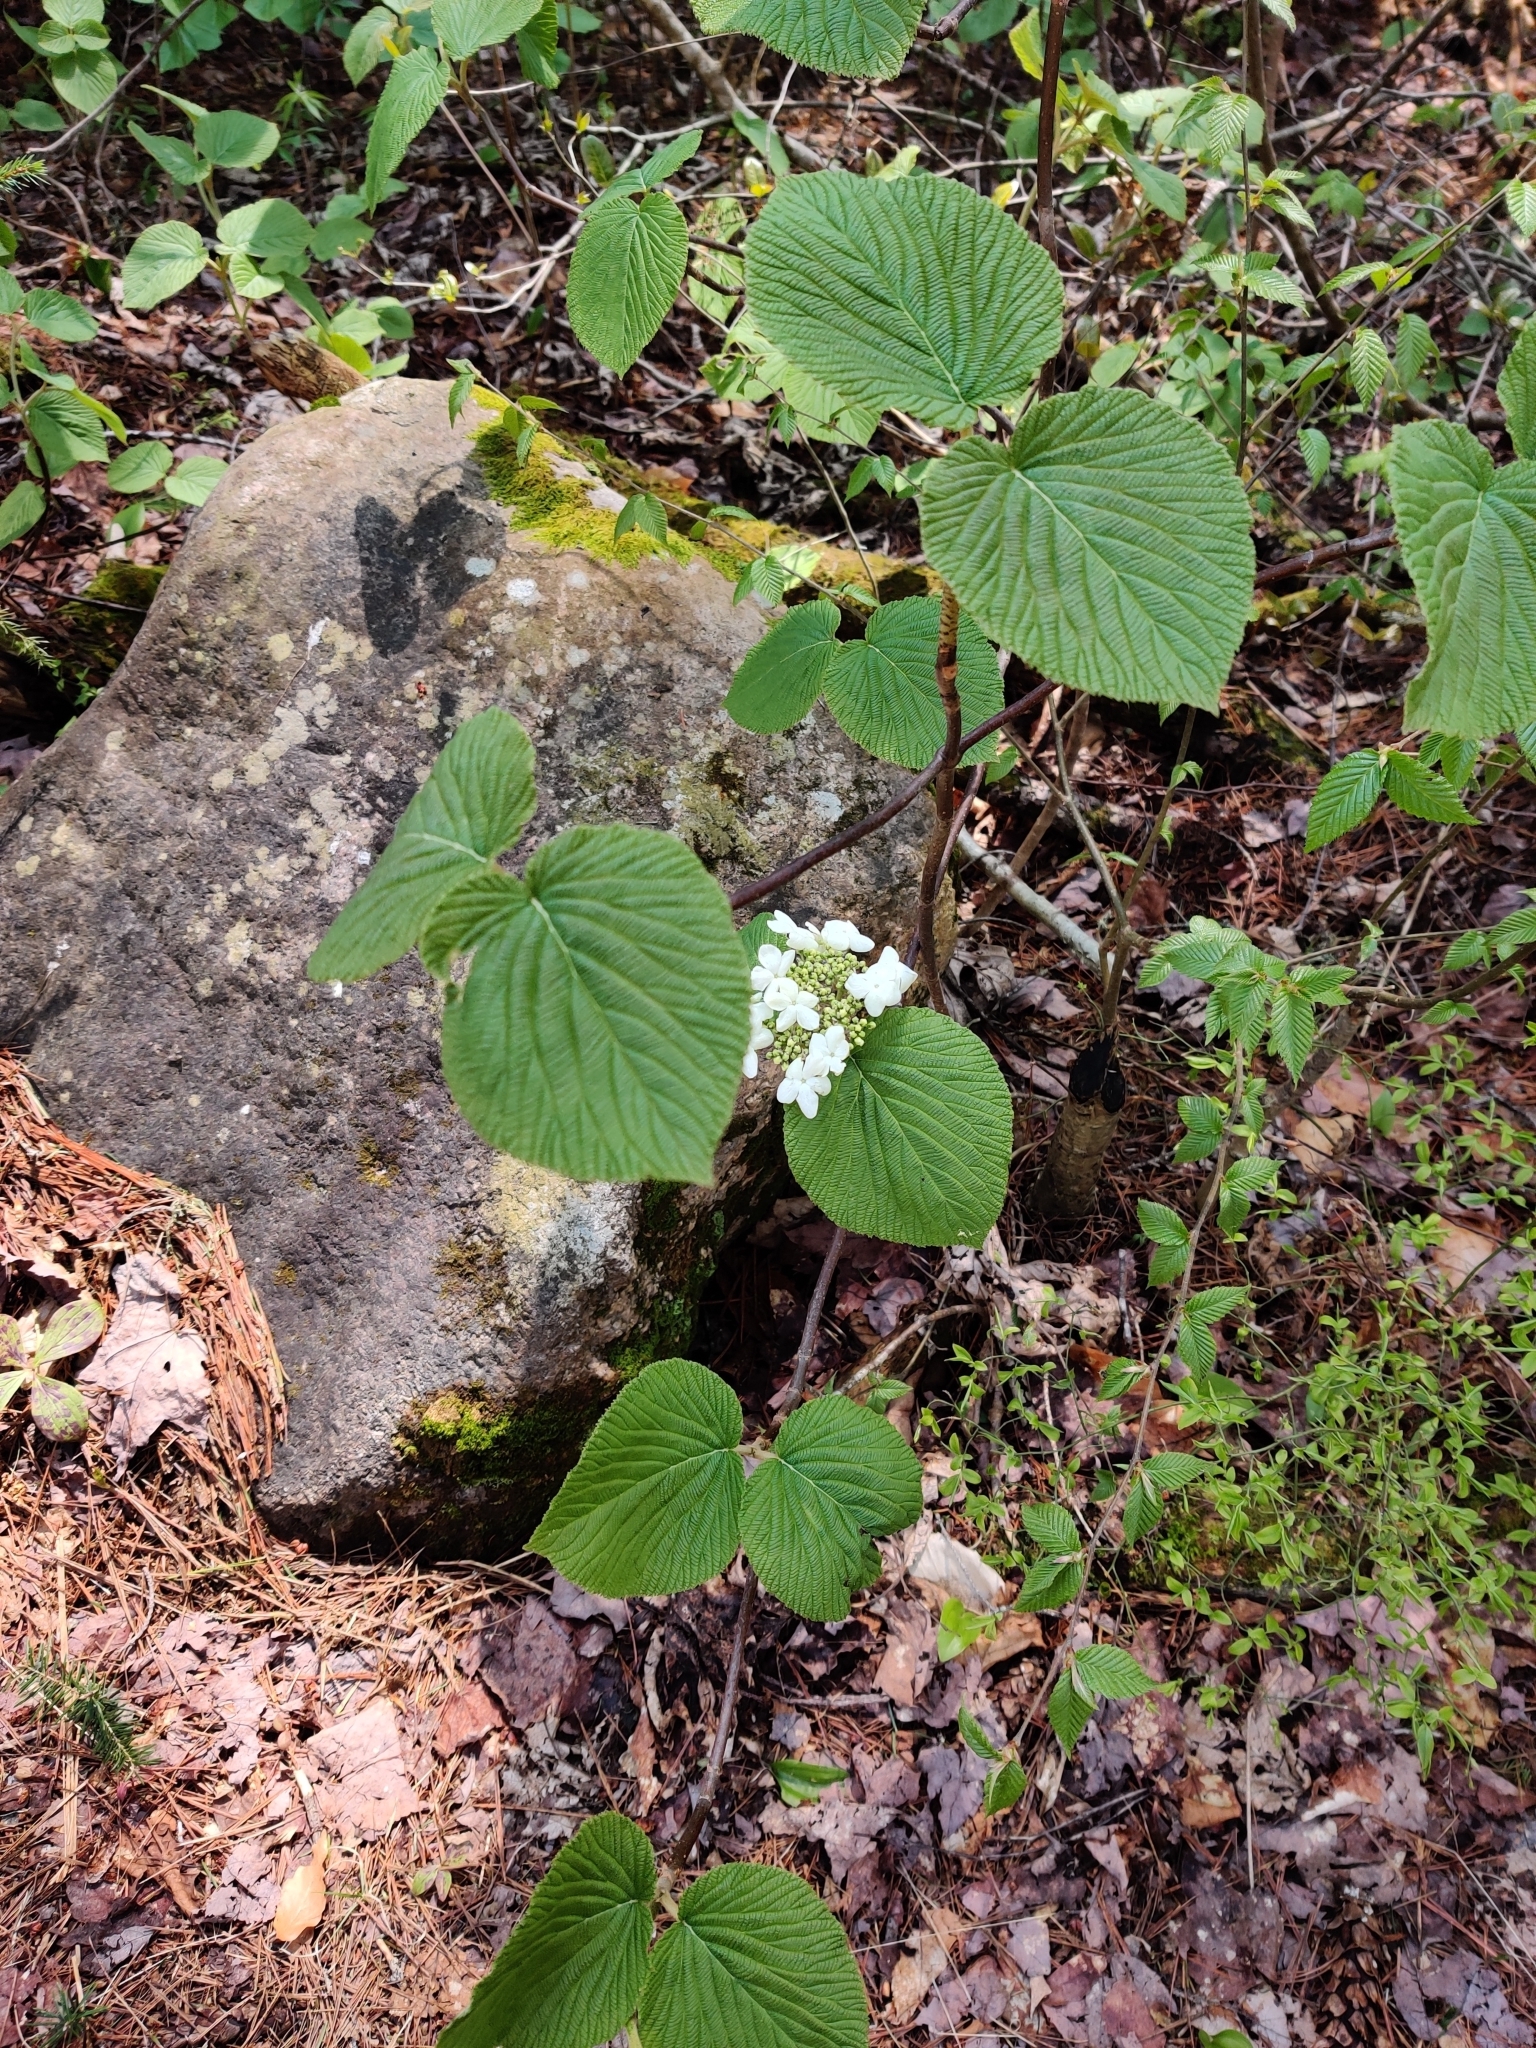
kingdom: Plantae
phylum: Tracheophyta
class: Magnoliopsida
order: Dipsacales
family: Viburnaceae
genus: Viburnum
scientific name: Viburnum lantanoides
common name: Hobblebush
